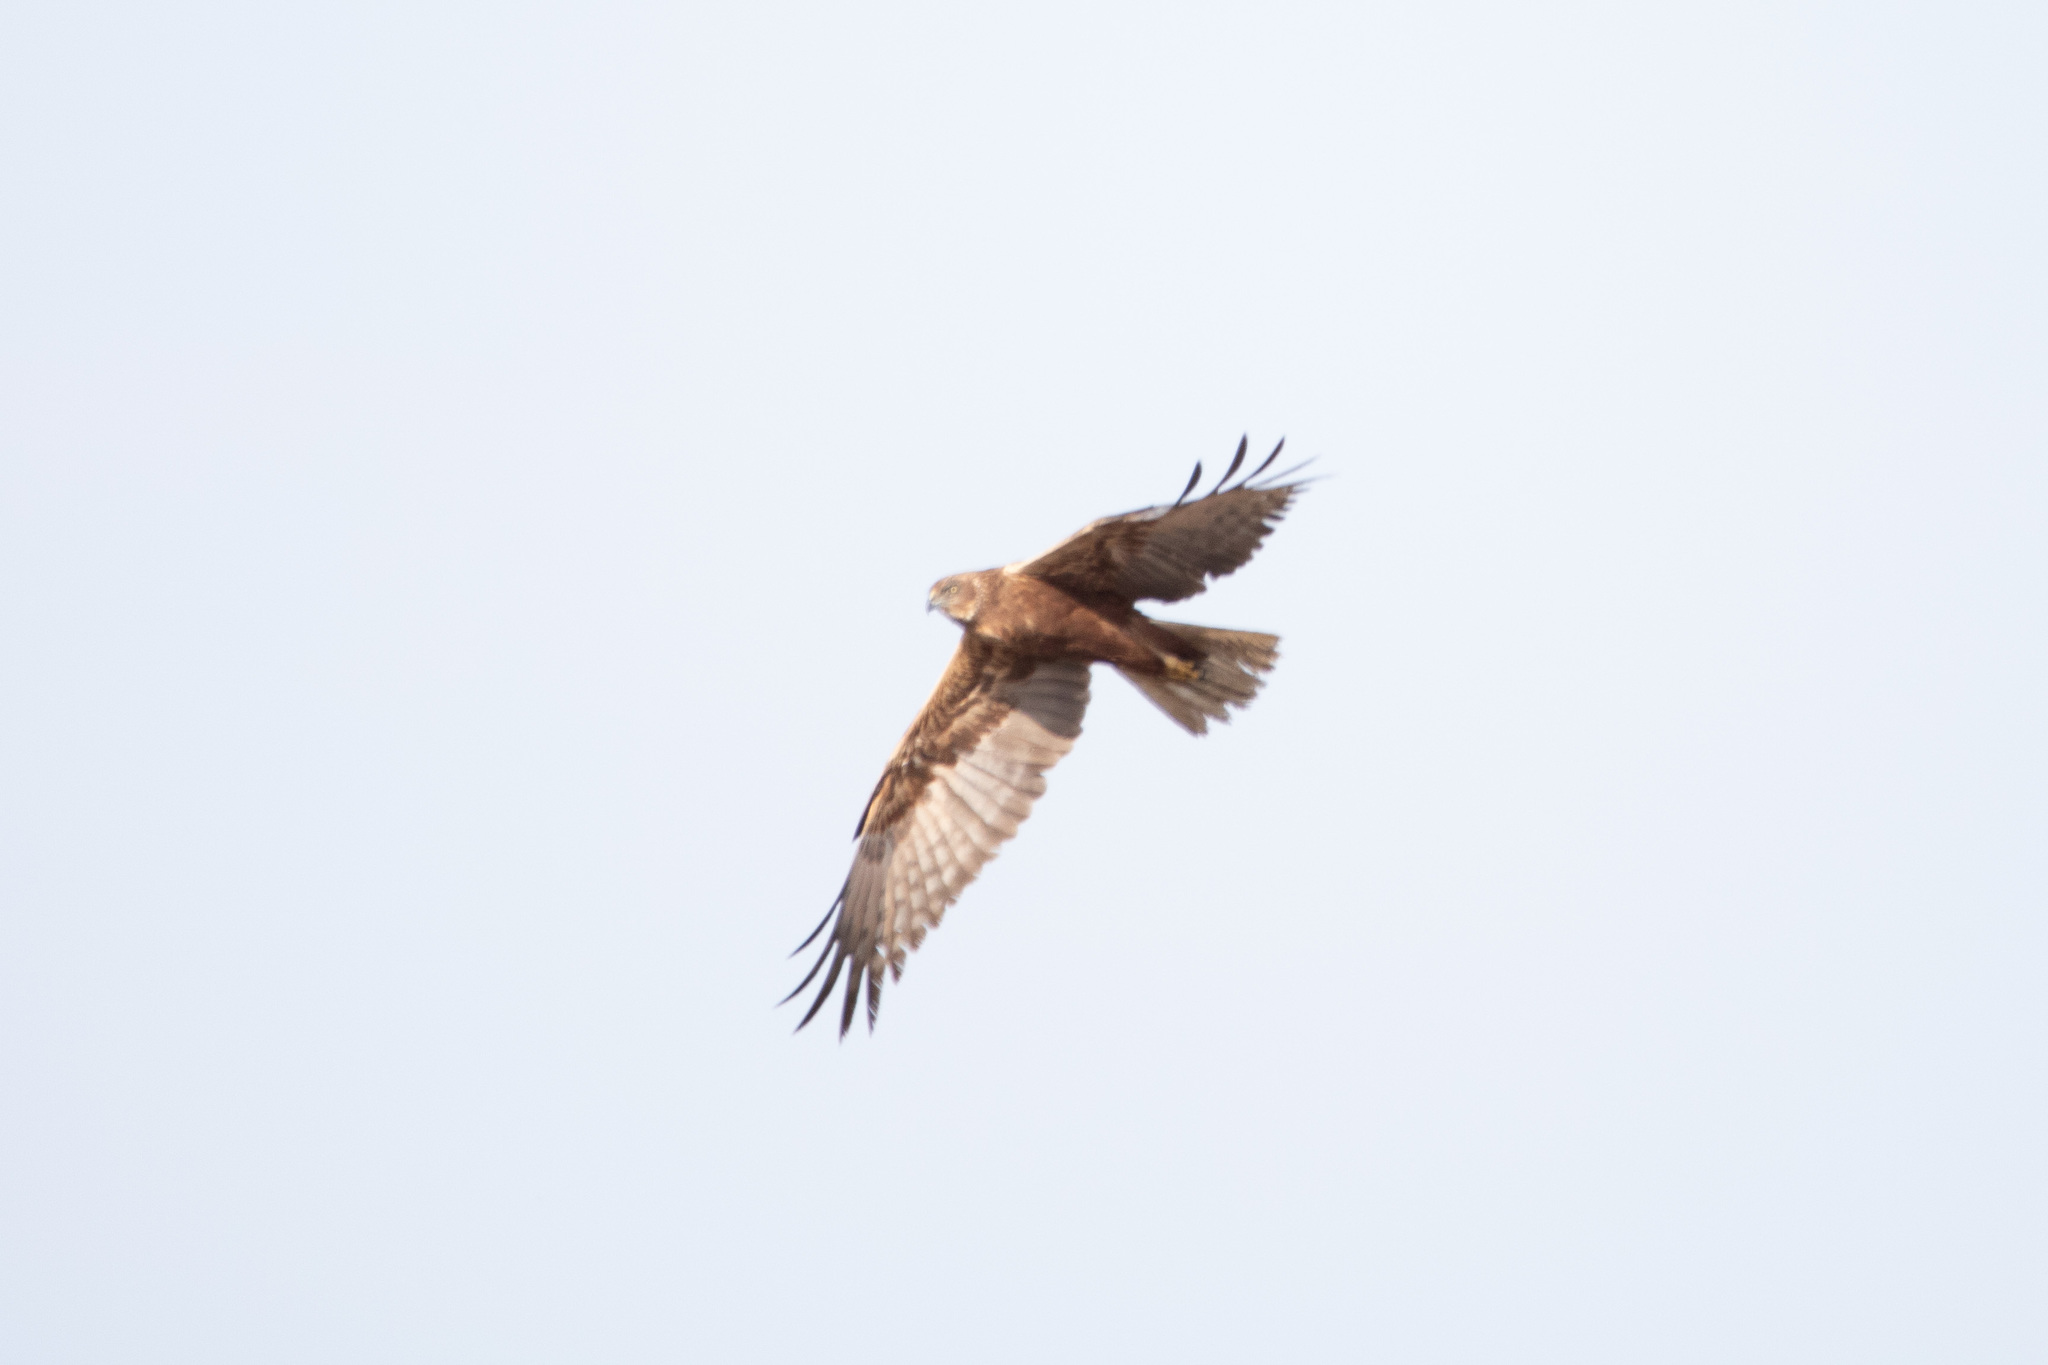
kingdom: Animalia
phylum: Chordata
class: Aves
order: Accipitriformes
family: Accipitridae
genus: Circus
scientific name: Circus aeruginosus
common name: Western marsh harrier
